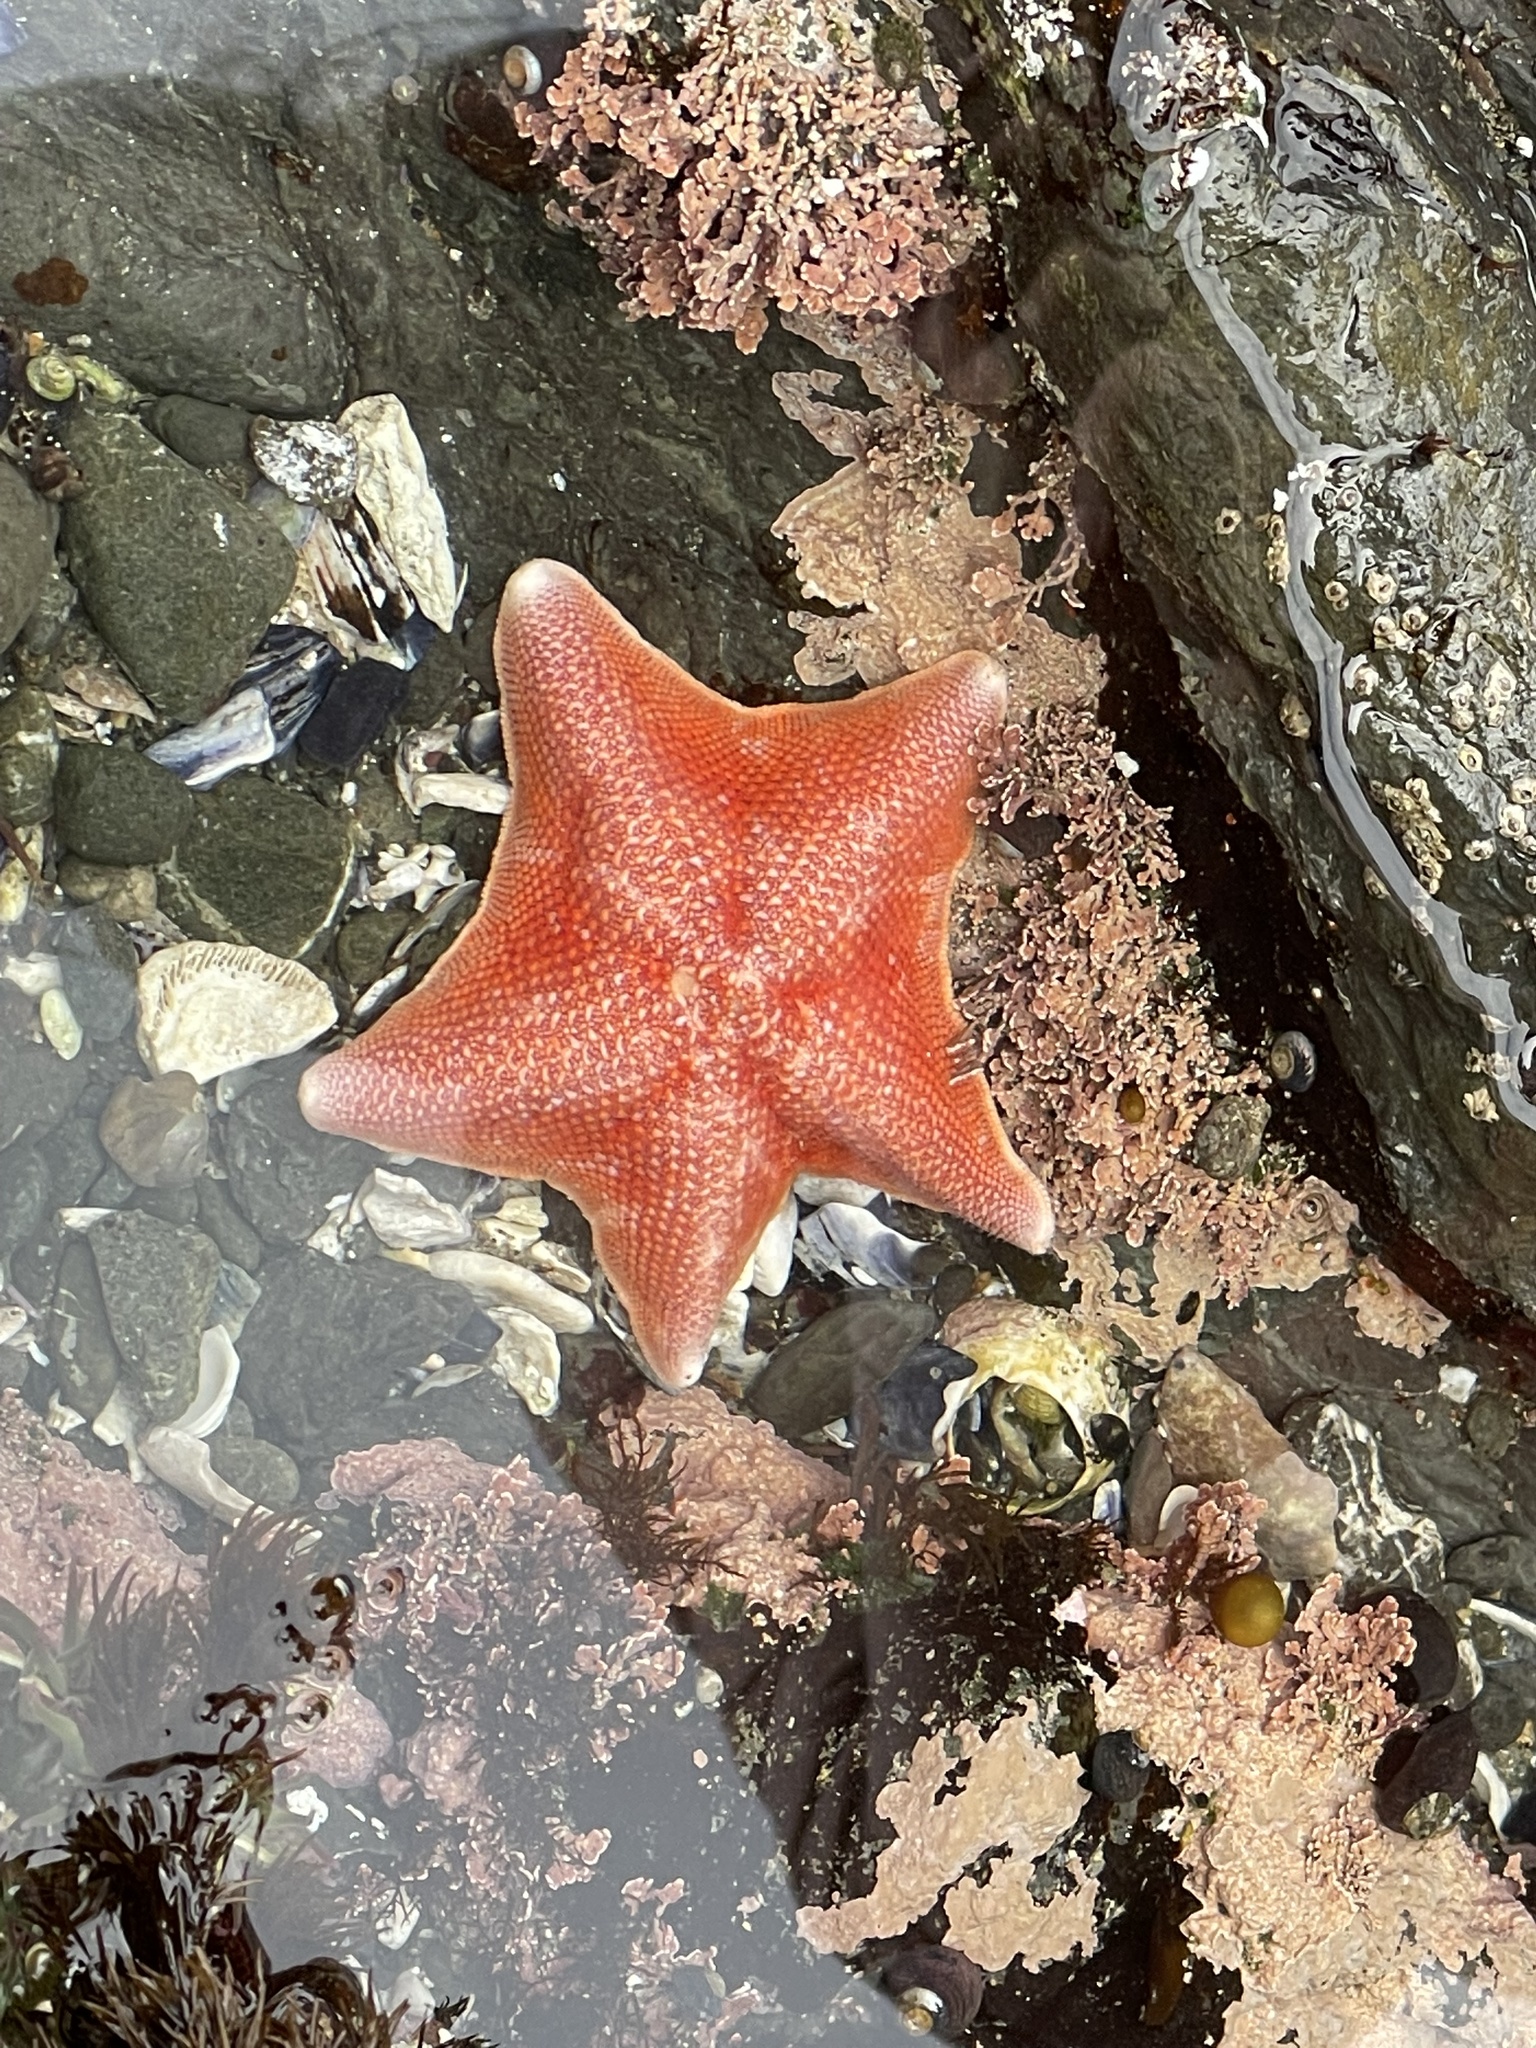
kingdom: Animalia
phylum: Echinodermata
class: Asteroidea
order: Valvatida
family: Asterinidae
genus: Patiria
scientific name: Patiria miniata
